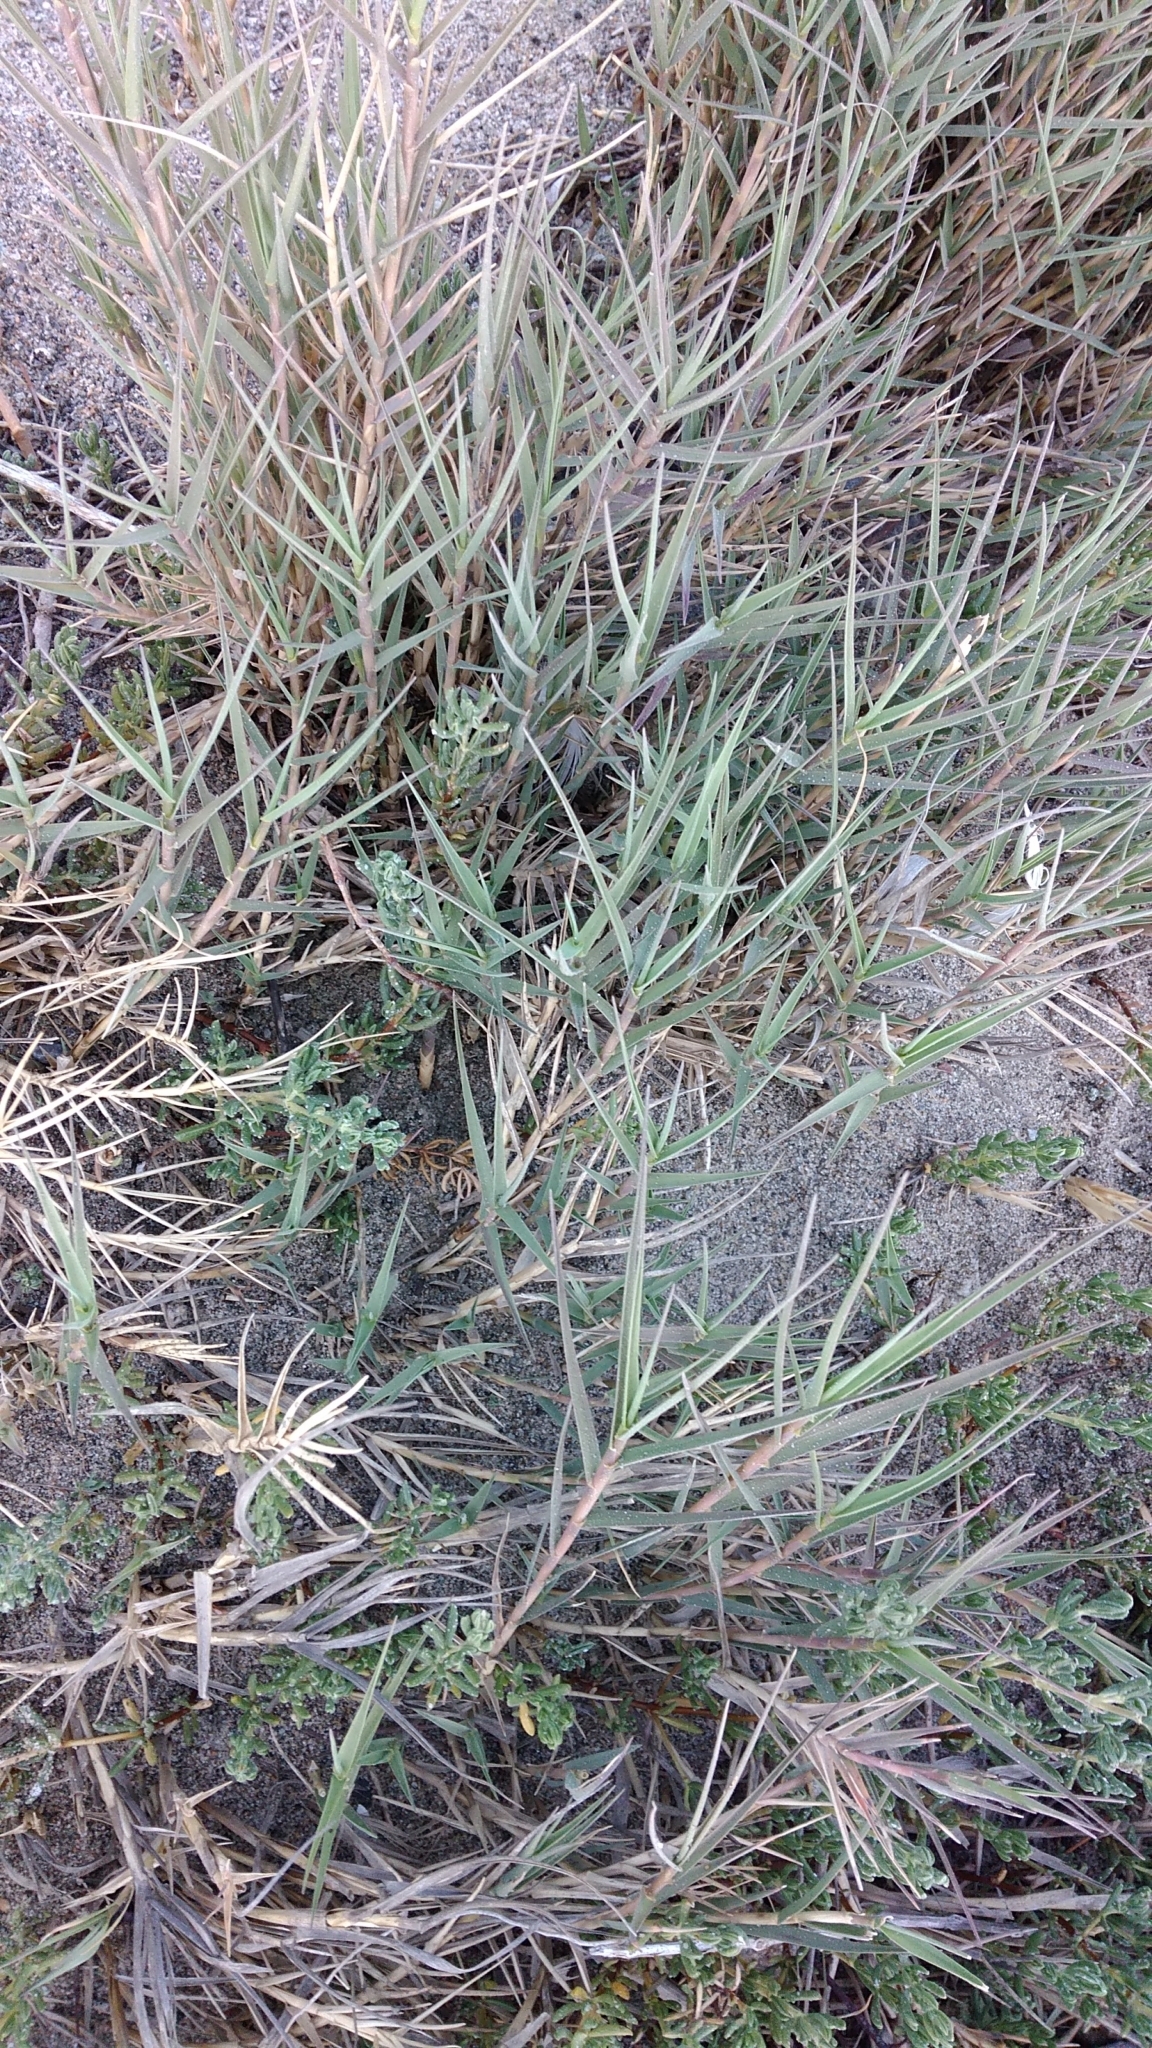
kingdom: Plantae
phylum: Tracheophyta
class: Liliopsida
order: Poales
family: Poaceae
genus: Distichlis
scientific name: Distichlis spicata
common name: Saltgrass
